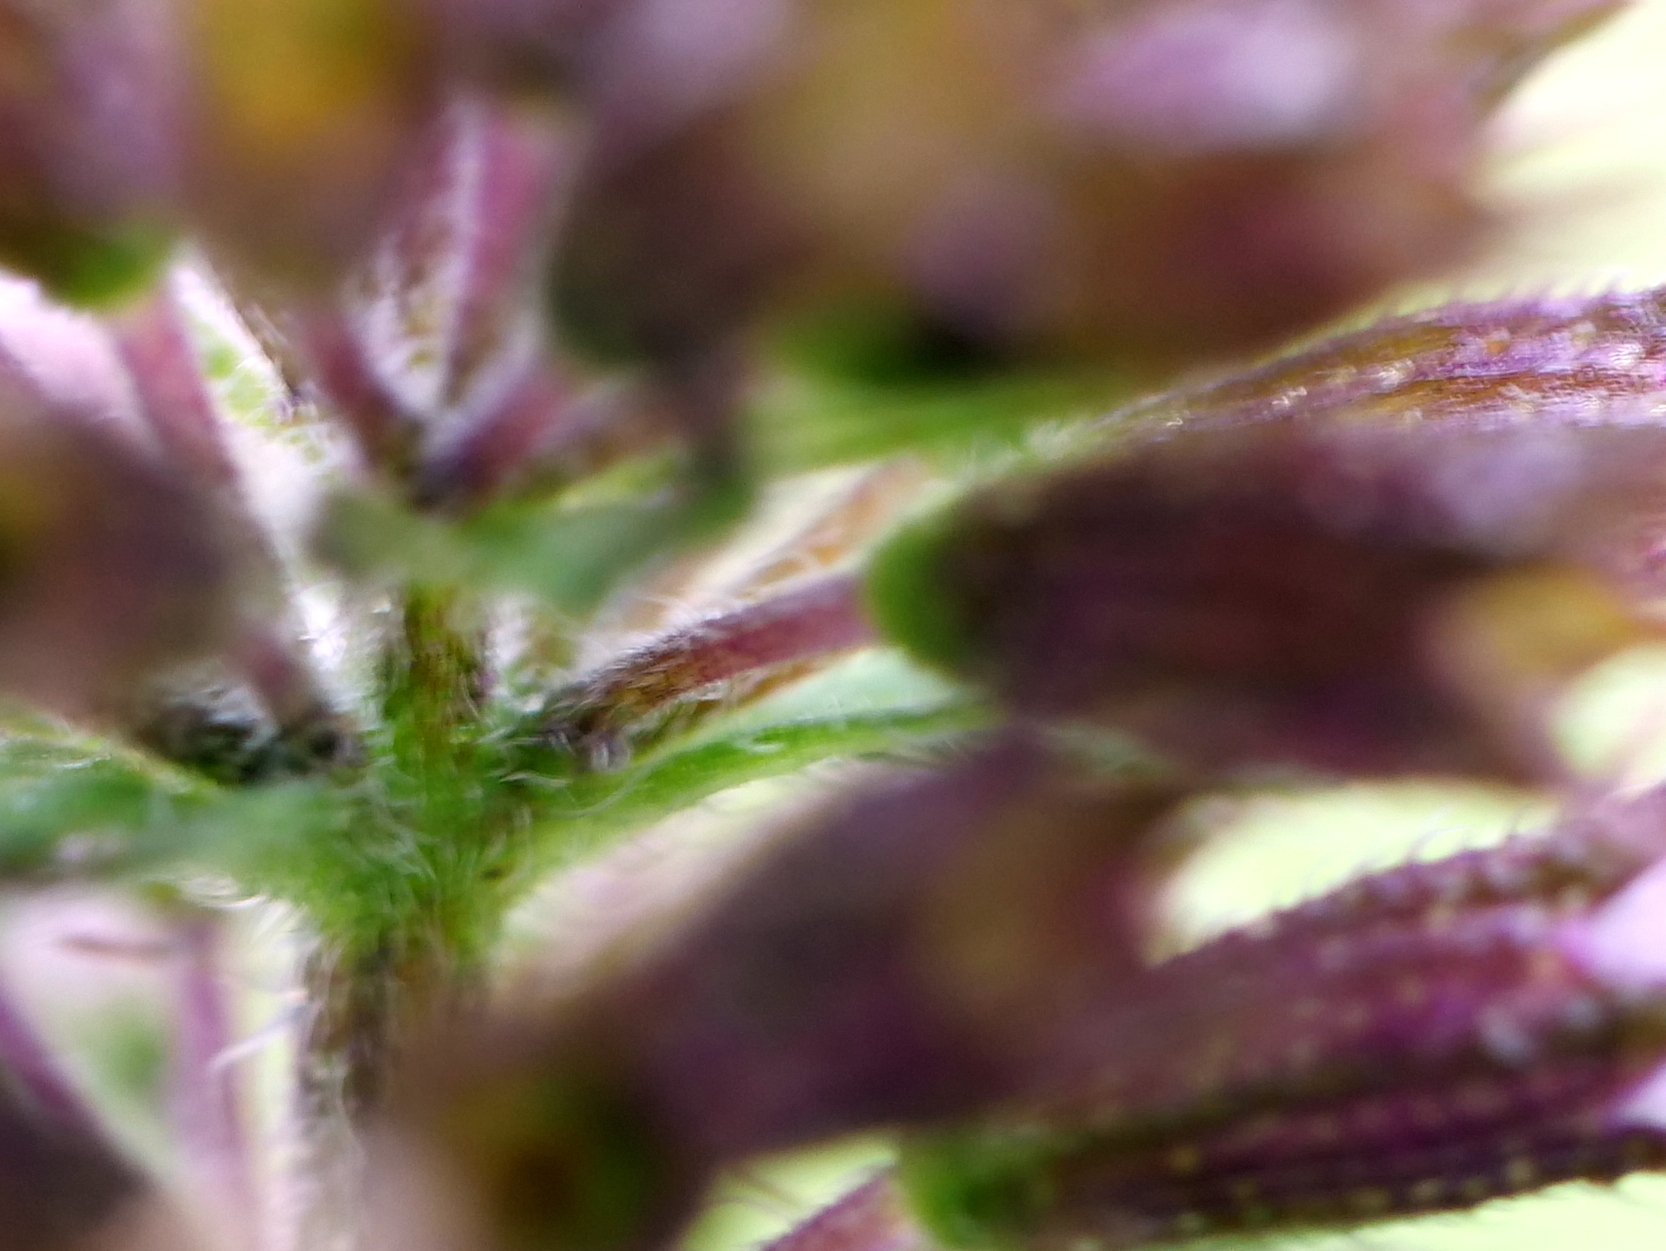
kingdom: Plantae
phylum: Tracheophyta
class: Magnoliopsida
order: Lamiales
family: Lamiaceae
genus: Mentha
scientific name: Mentha aquatica
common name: Water mint
